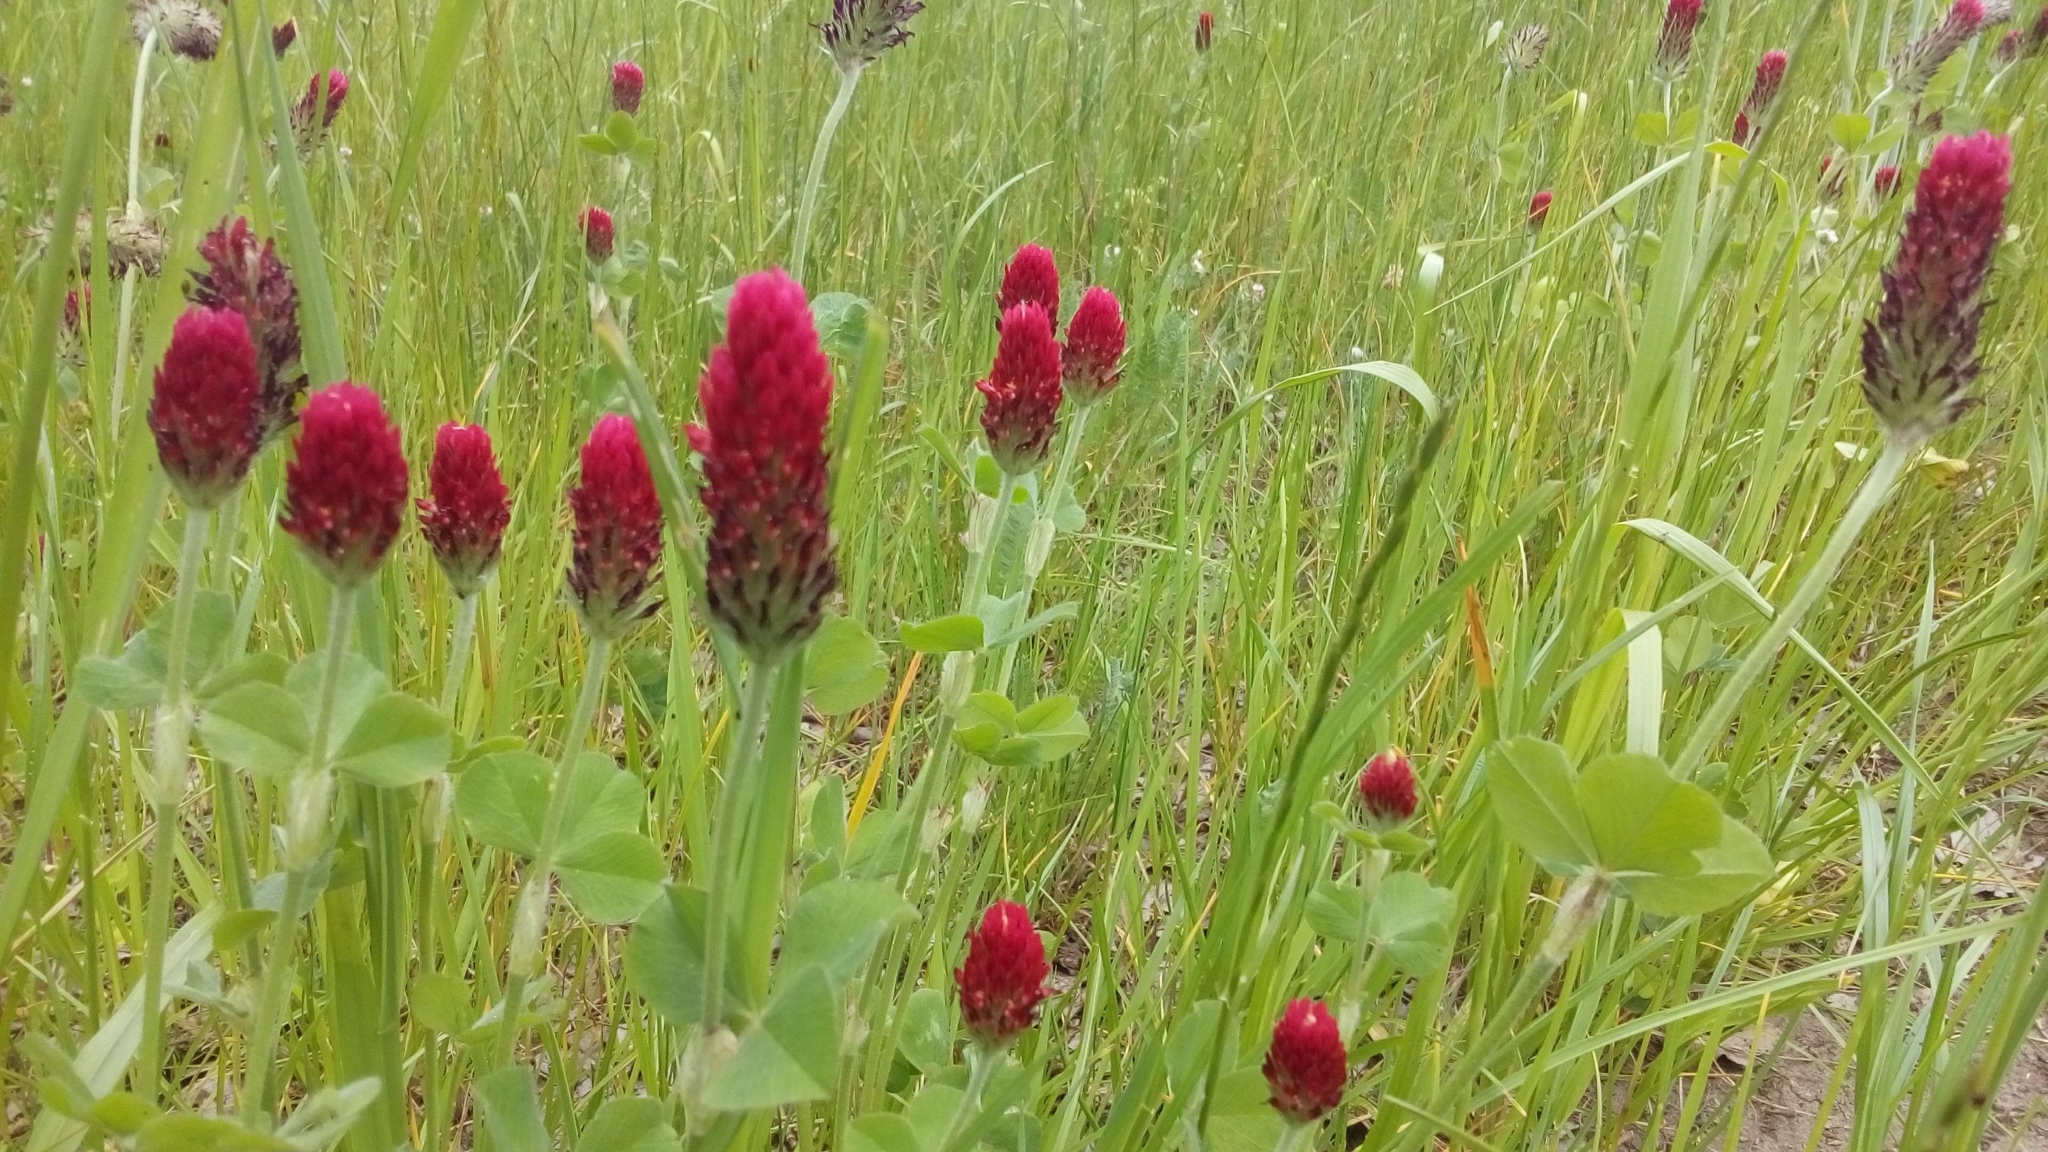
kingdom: Plantae
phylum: Tracheophyta
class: Magnoliopsida
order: Fabales
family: Fabaceae
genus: Trifolium
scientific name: Trifolium incarnatum
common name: Crimson clover
